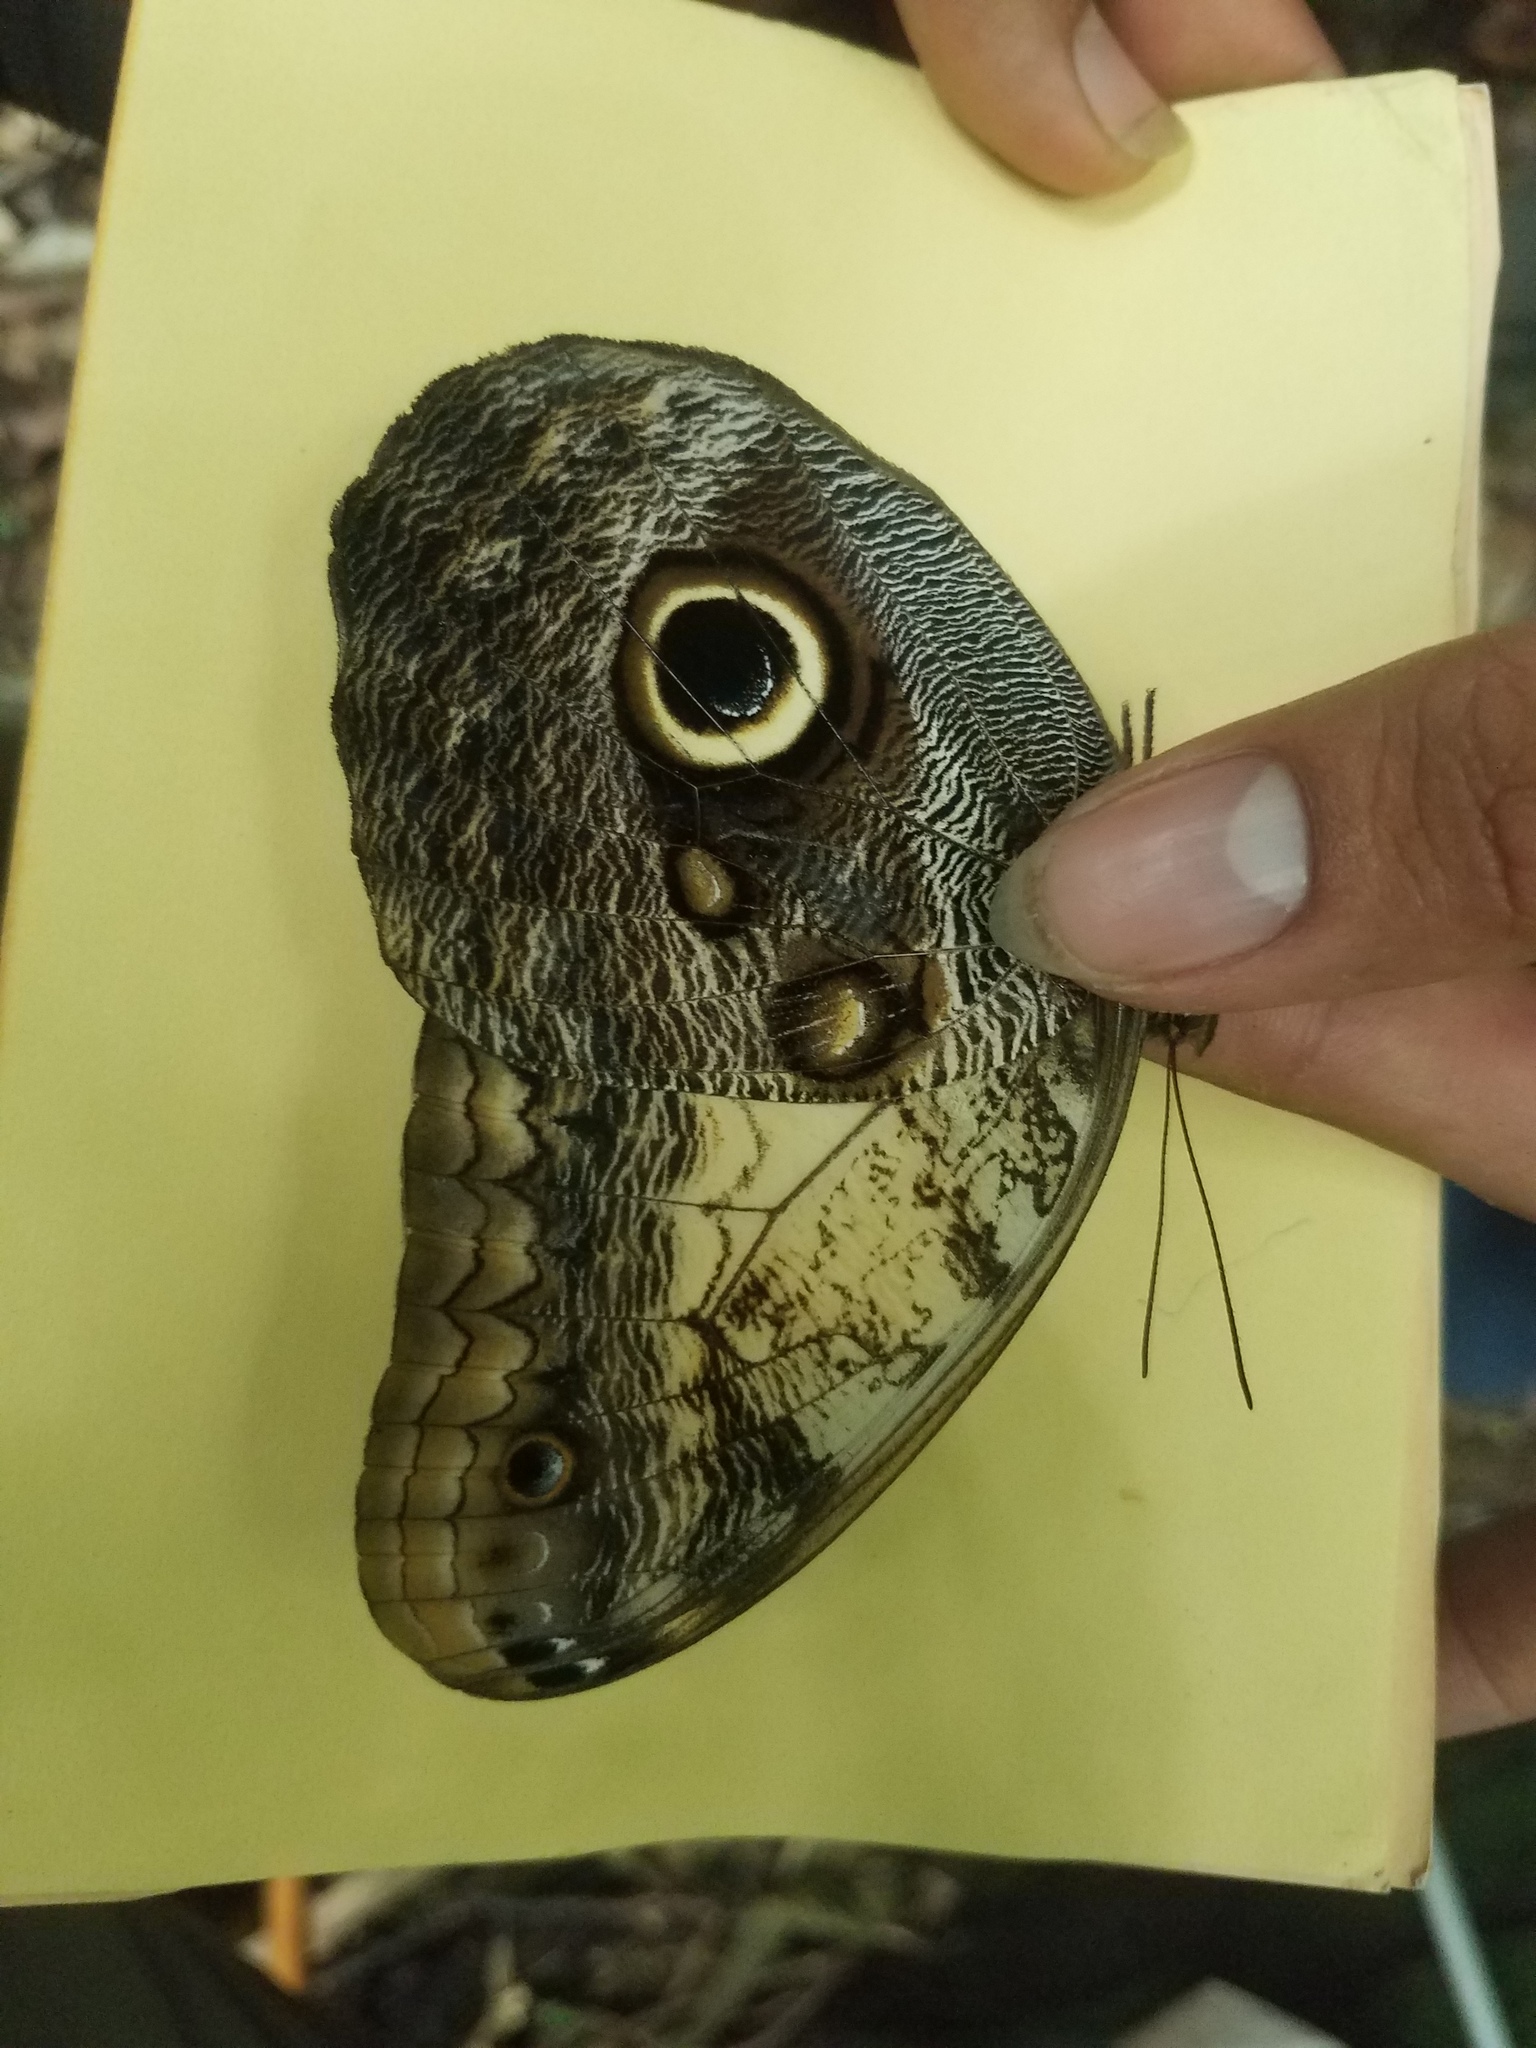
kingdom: Animalia
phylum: Arthropoda
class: Insecta
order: Lepidoptera
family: Nymphalidae
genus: Caligo
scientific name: Caligo telamonius
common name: Pale owl-butterfly
